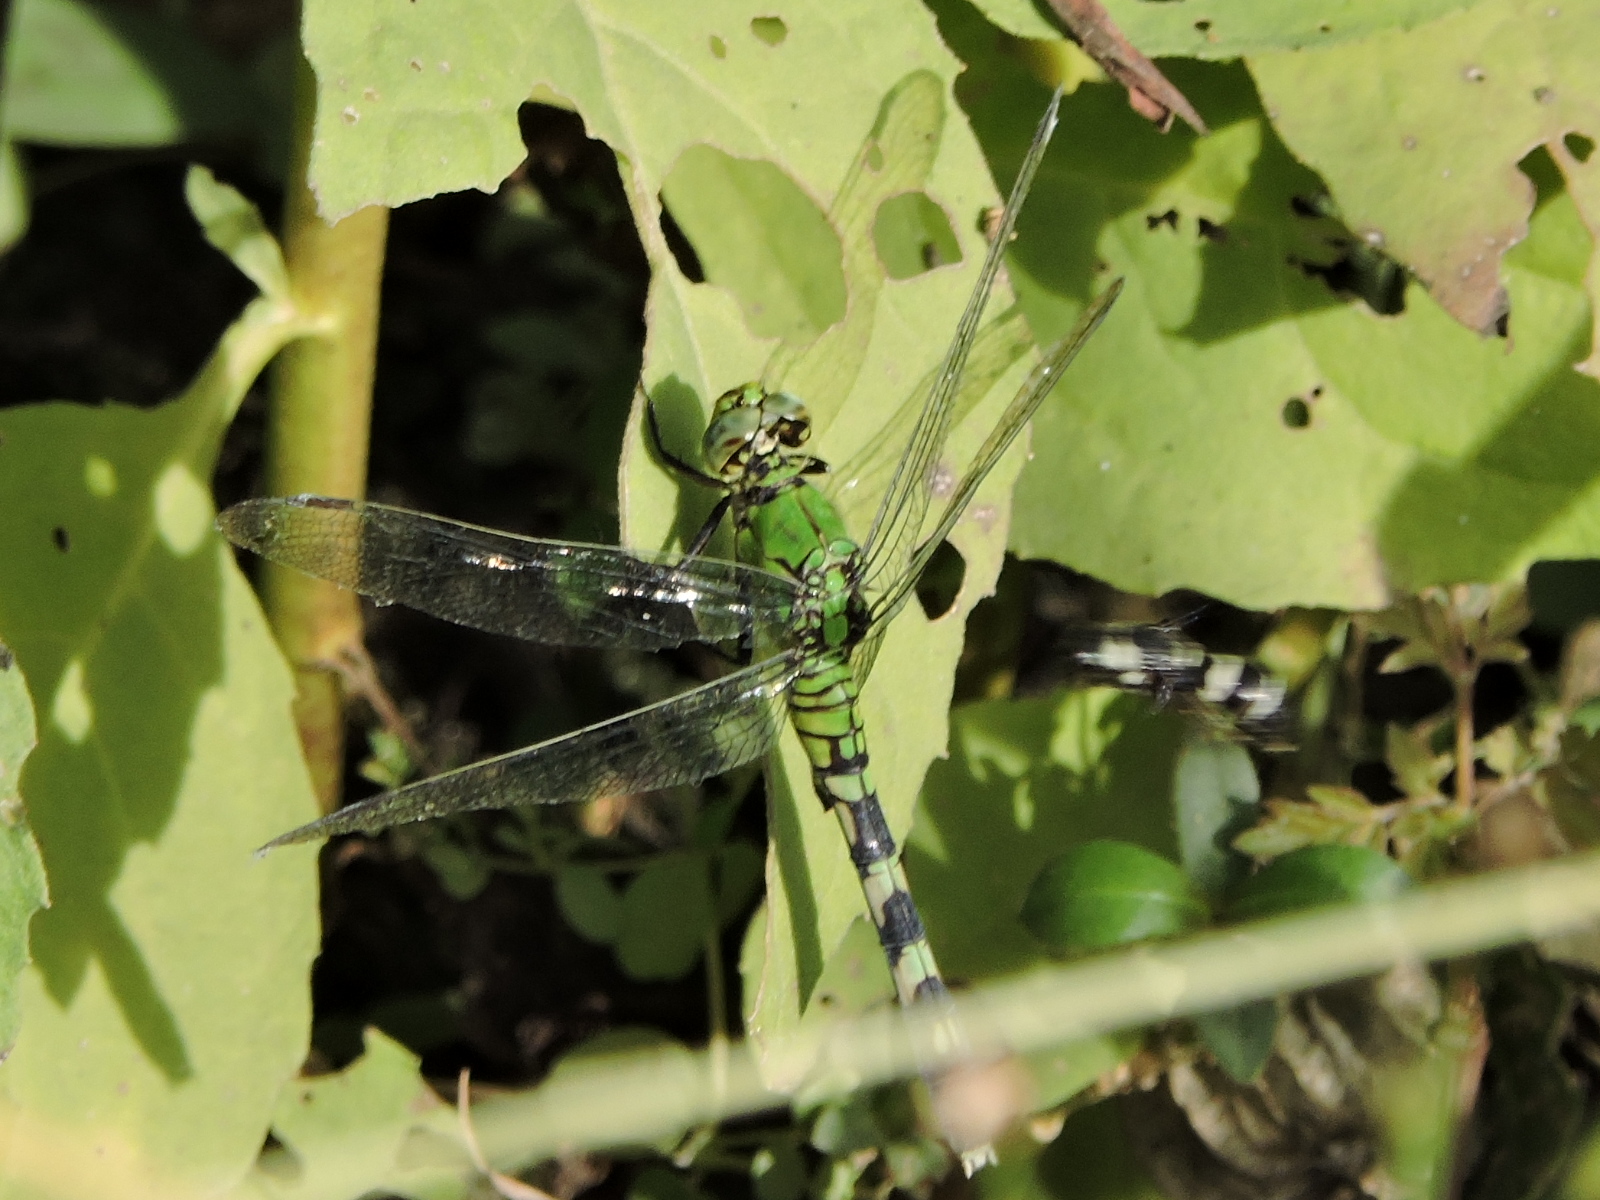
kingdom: Animalia
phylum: Arthropoda
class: Insecta
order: Odonata
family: Libellulidae
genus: Erythemis
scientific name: Erythemis simplicicollis
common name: Eastern pondhawk
